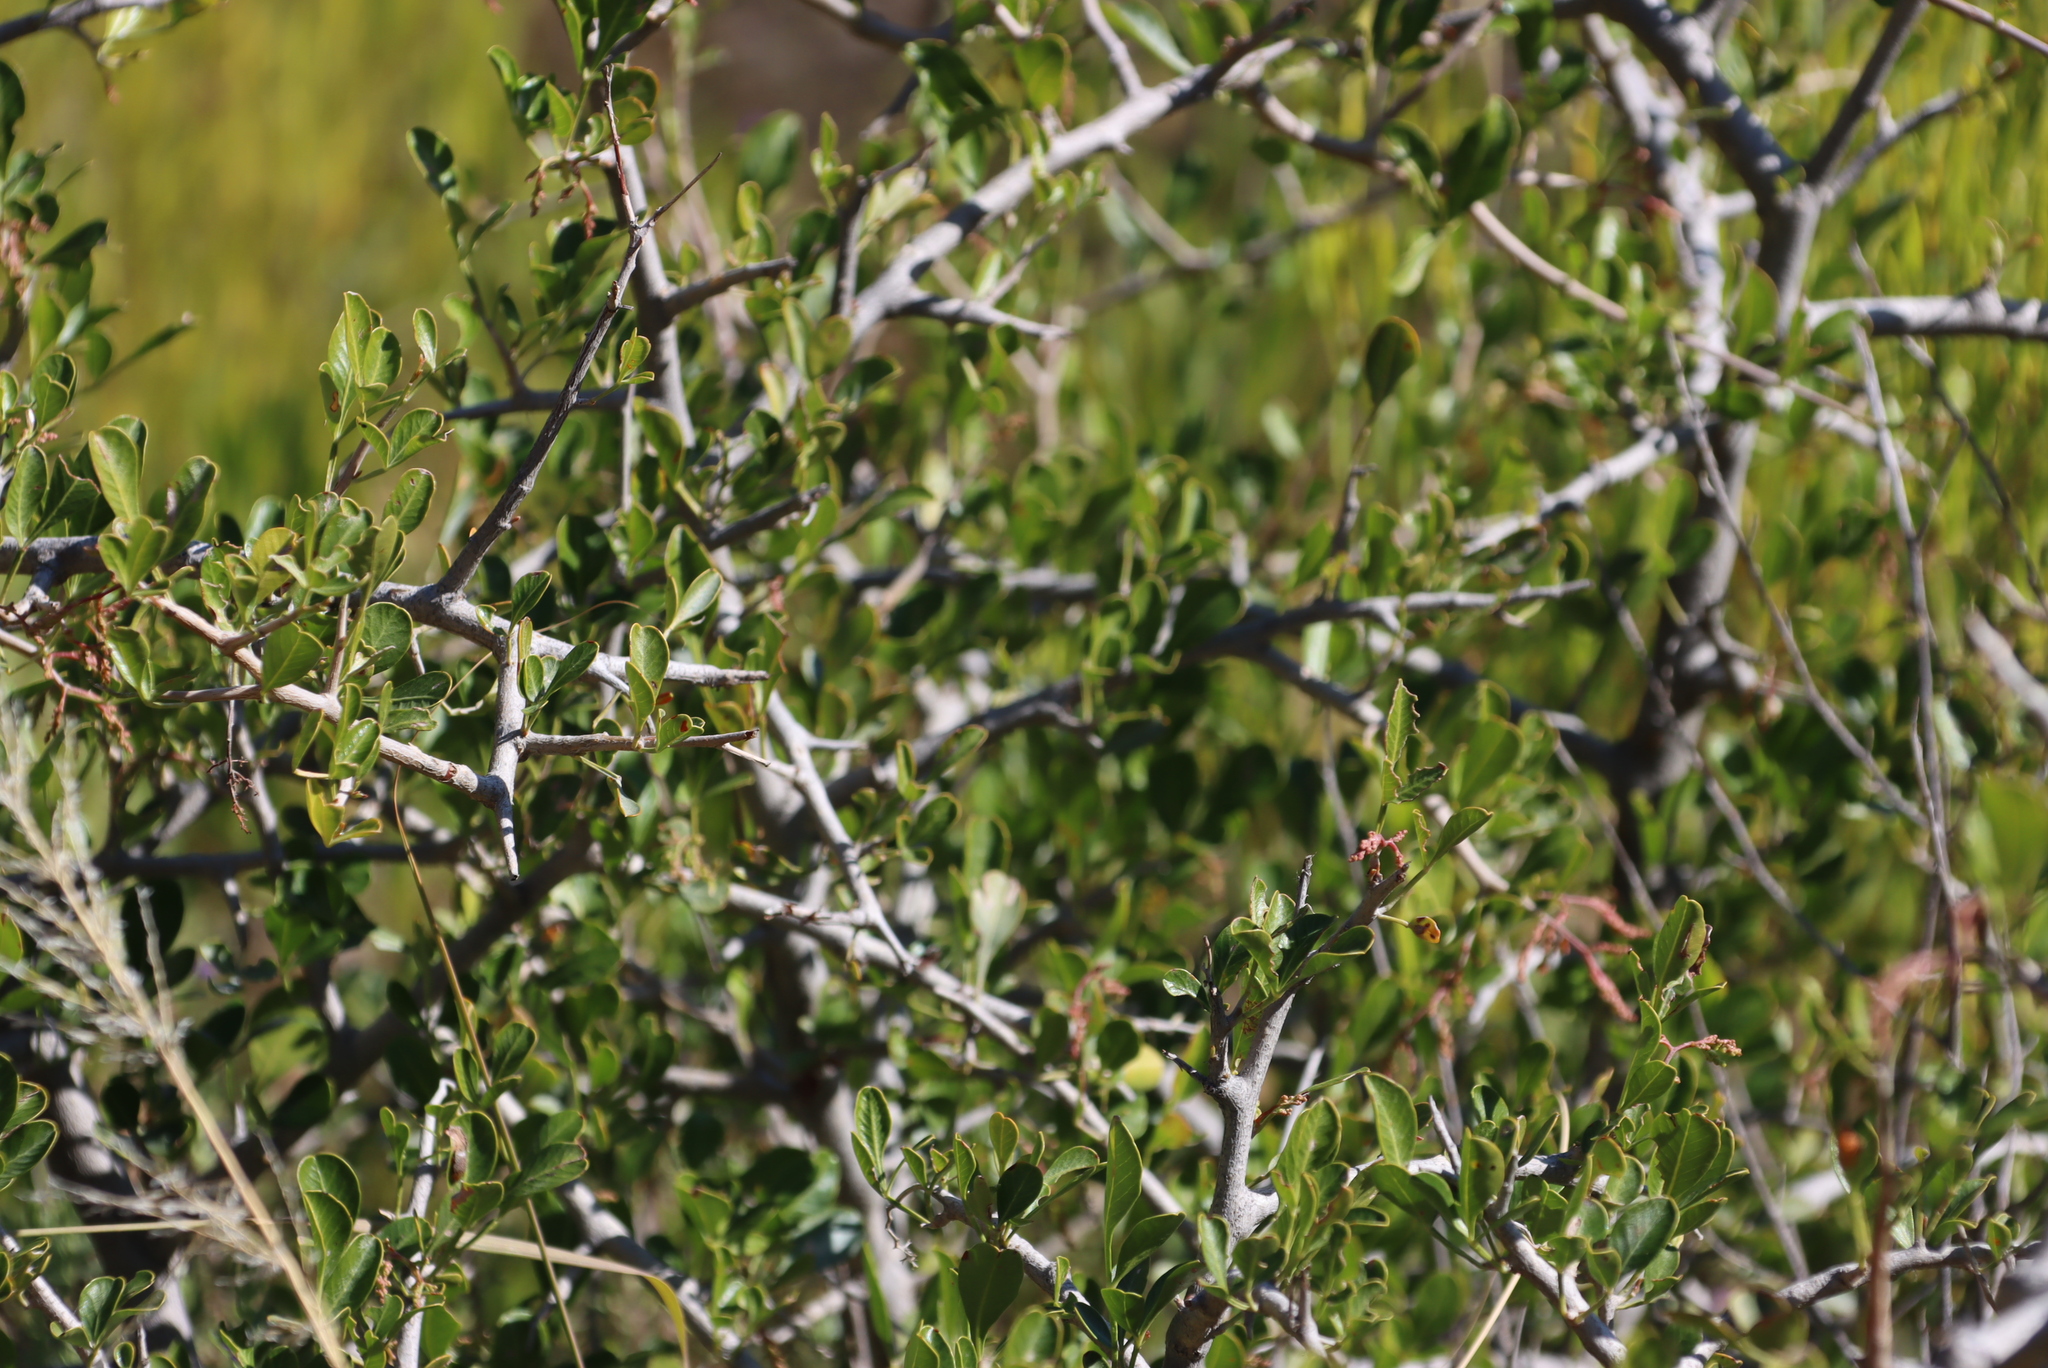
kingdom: Plantae
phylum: Tracheophyta
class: Magnoliopsida
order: Sapindales
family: Anacardiaceae
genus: Searsia
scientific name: Searsia longispina
